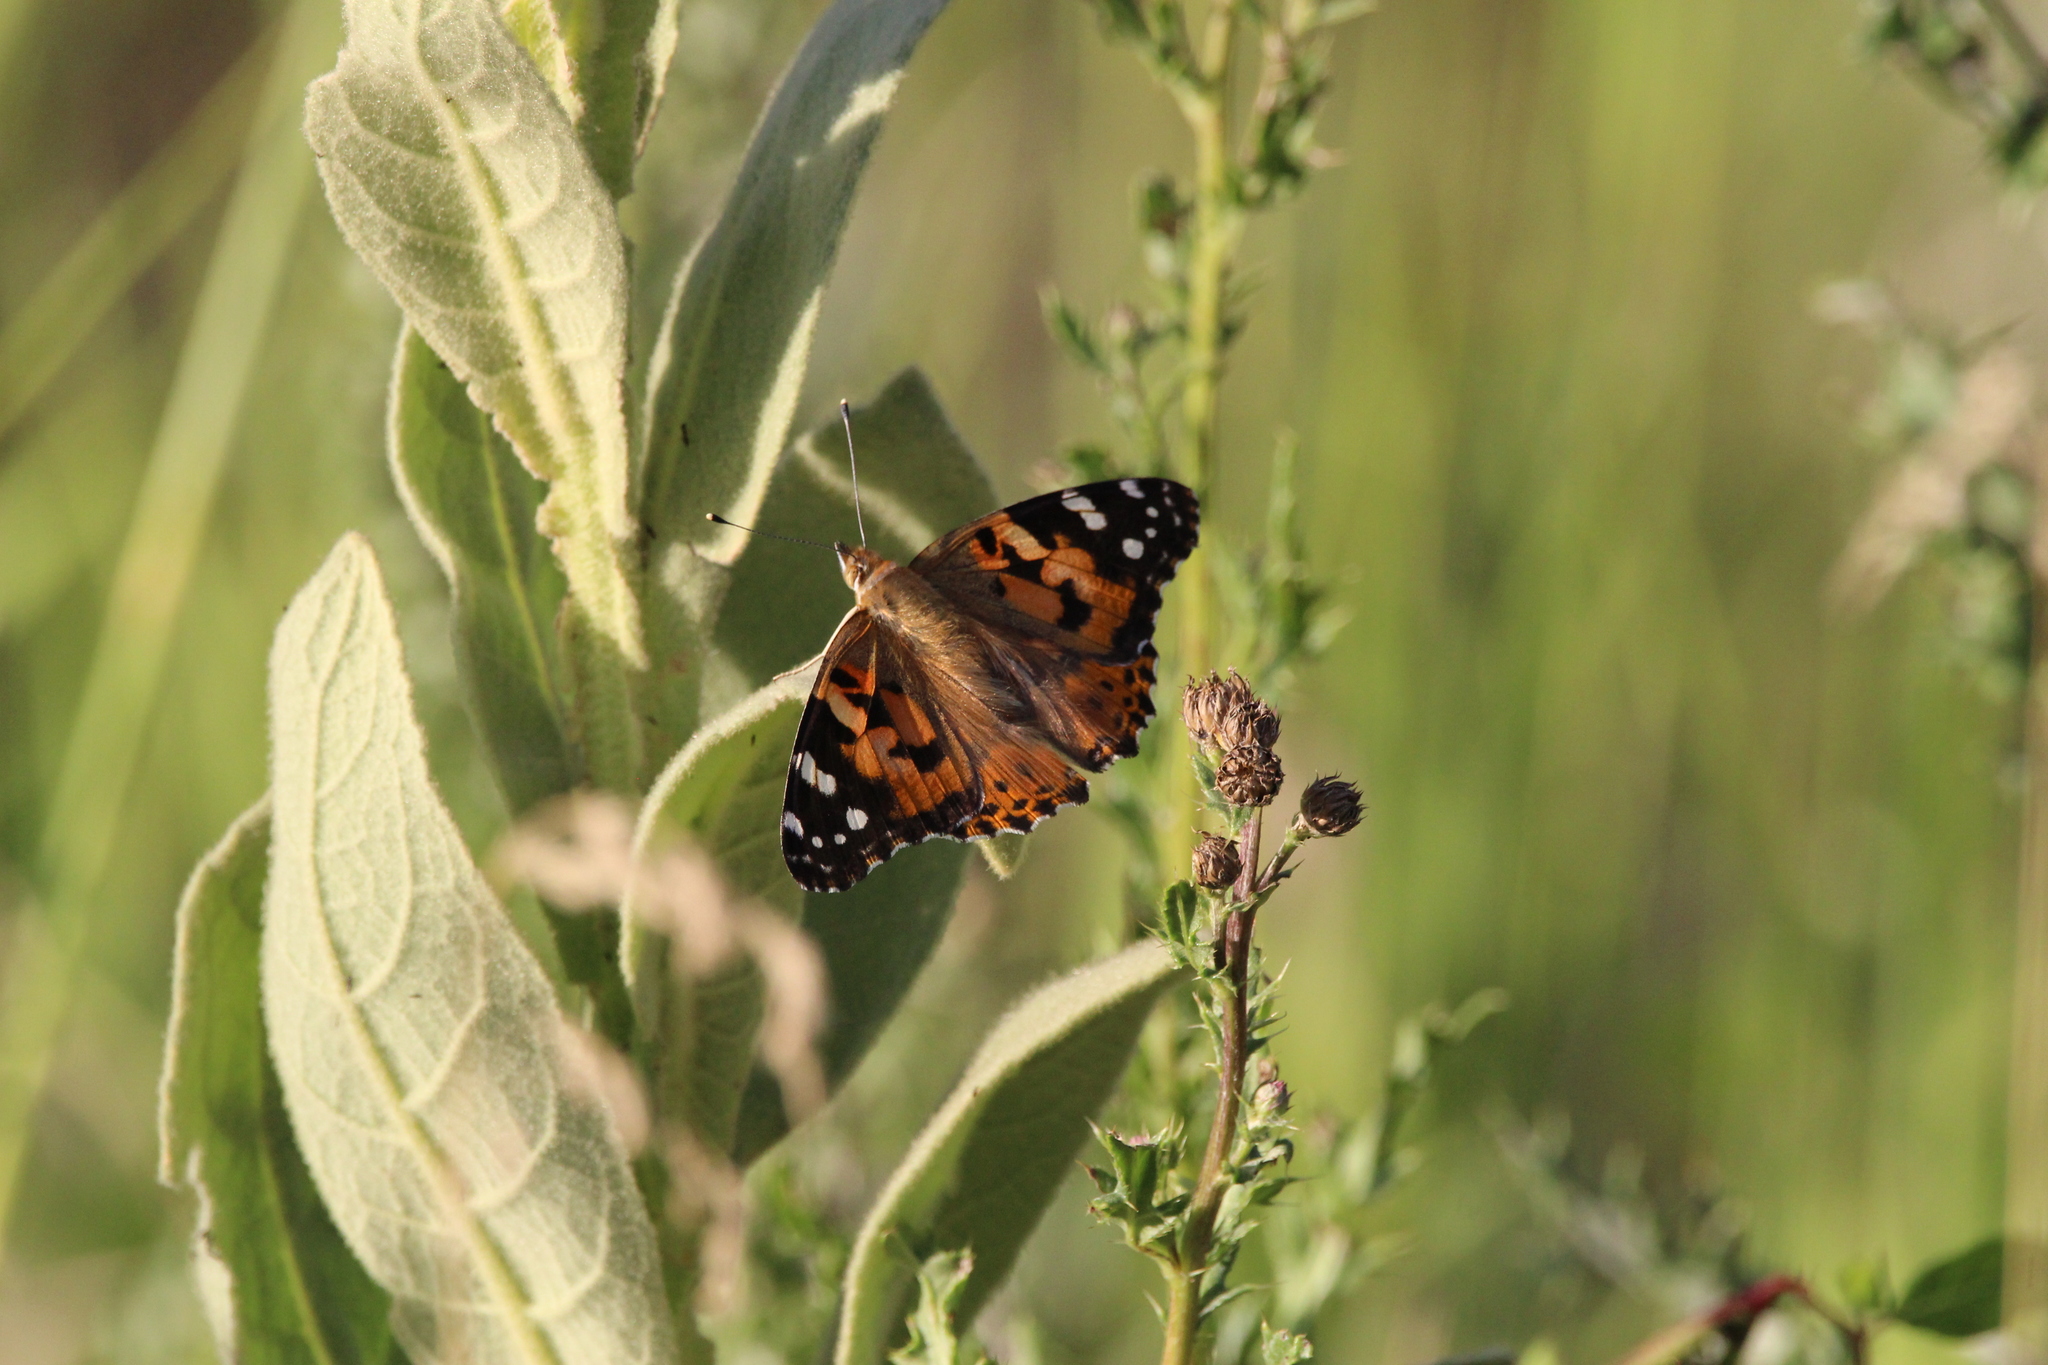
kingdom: Animalia
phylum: Arthropoda
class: Insecta
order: Lepidoptera
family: Nymphalidae
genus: Vanessa
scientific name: Vanessa cardui
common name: Painted lady
